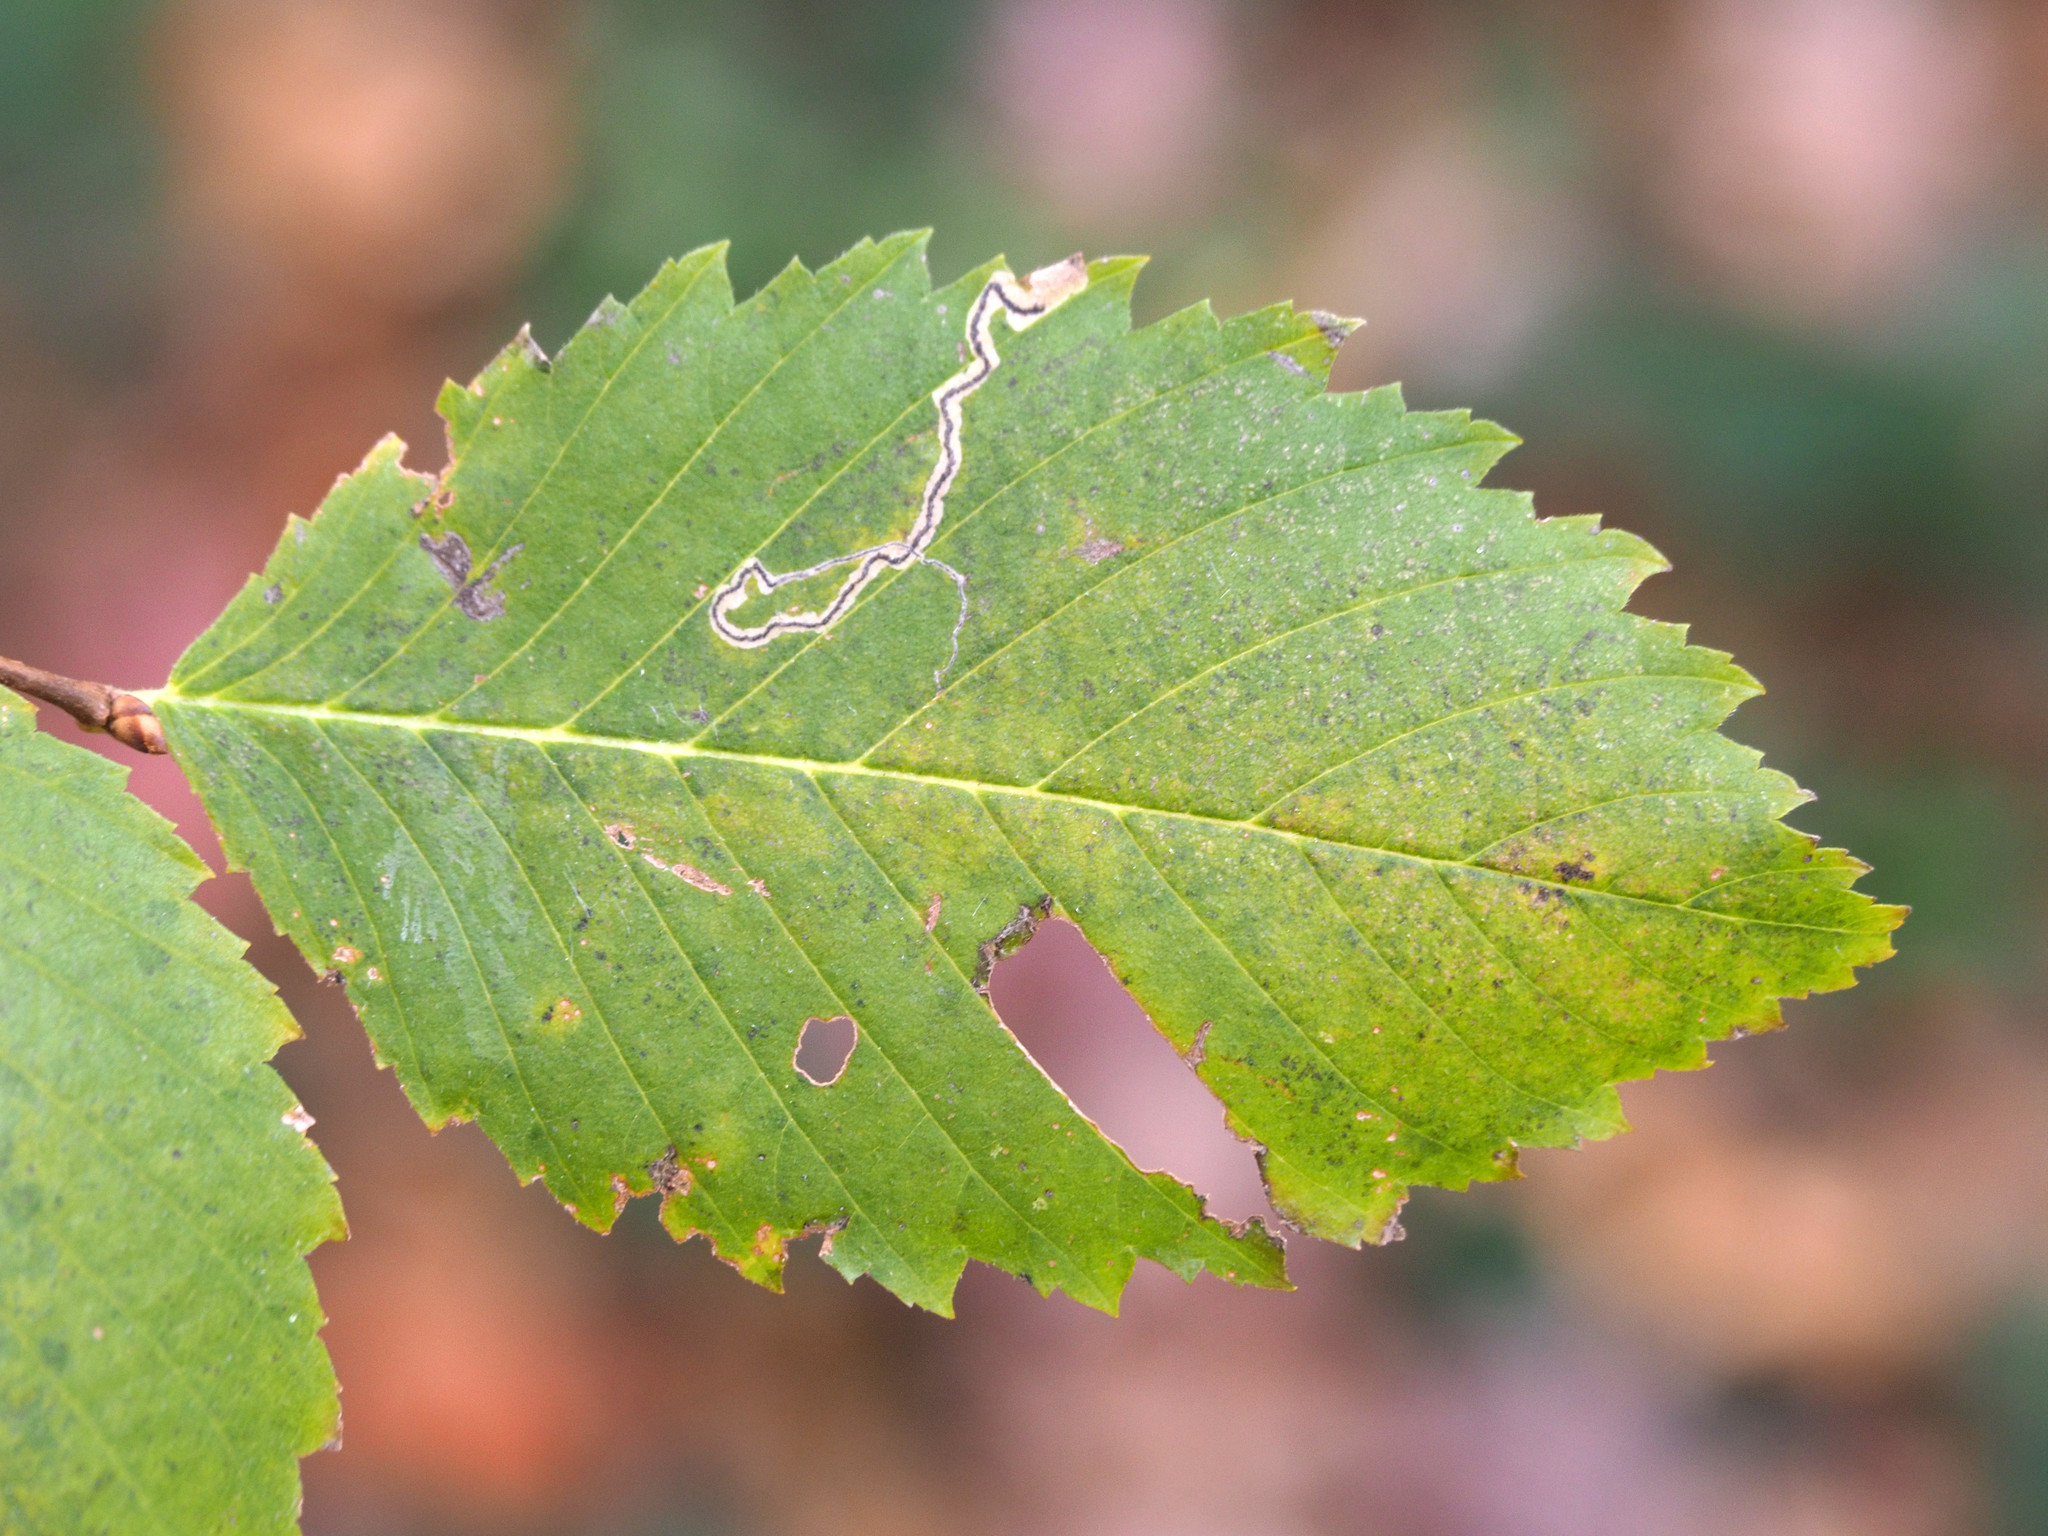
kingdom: Animalia
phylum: Arthropoda
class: Insecta
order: Lepidoptera
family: Nepticulidae
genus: Stigmella
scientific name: Stigmella apicialbella
